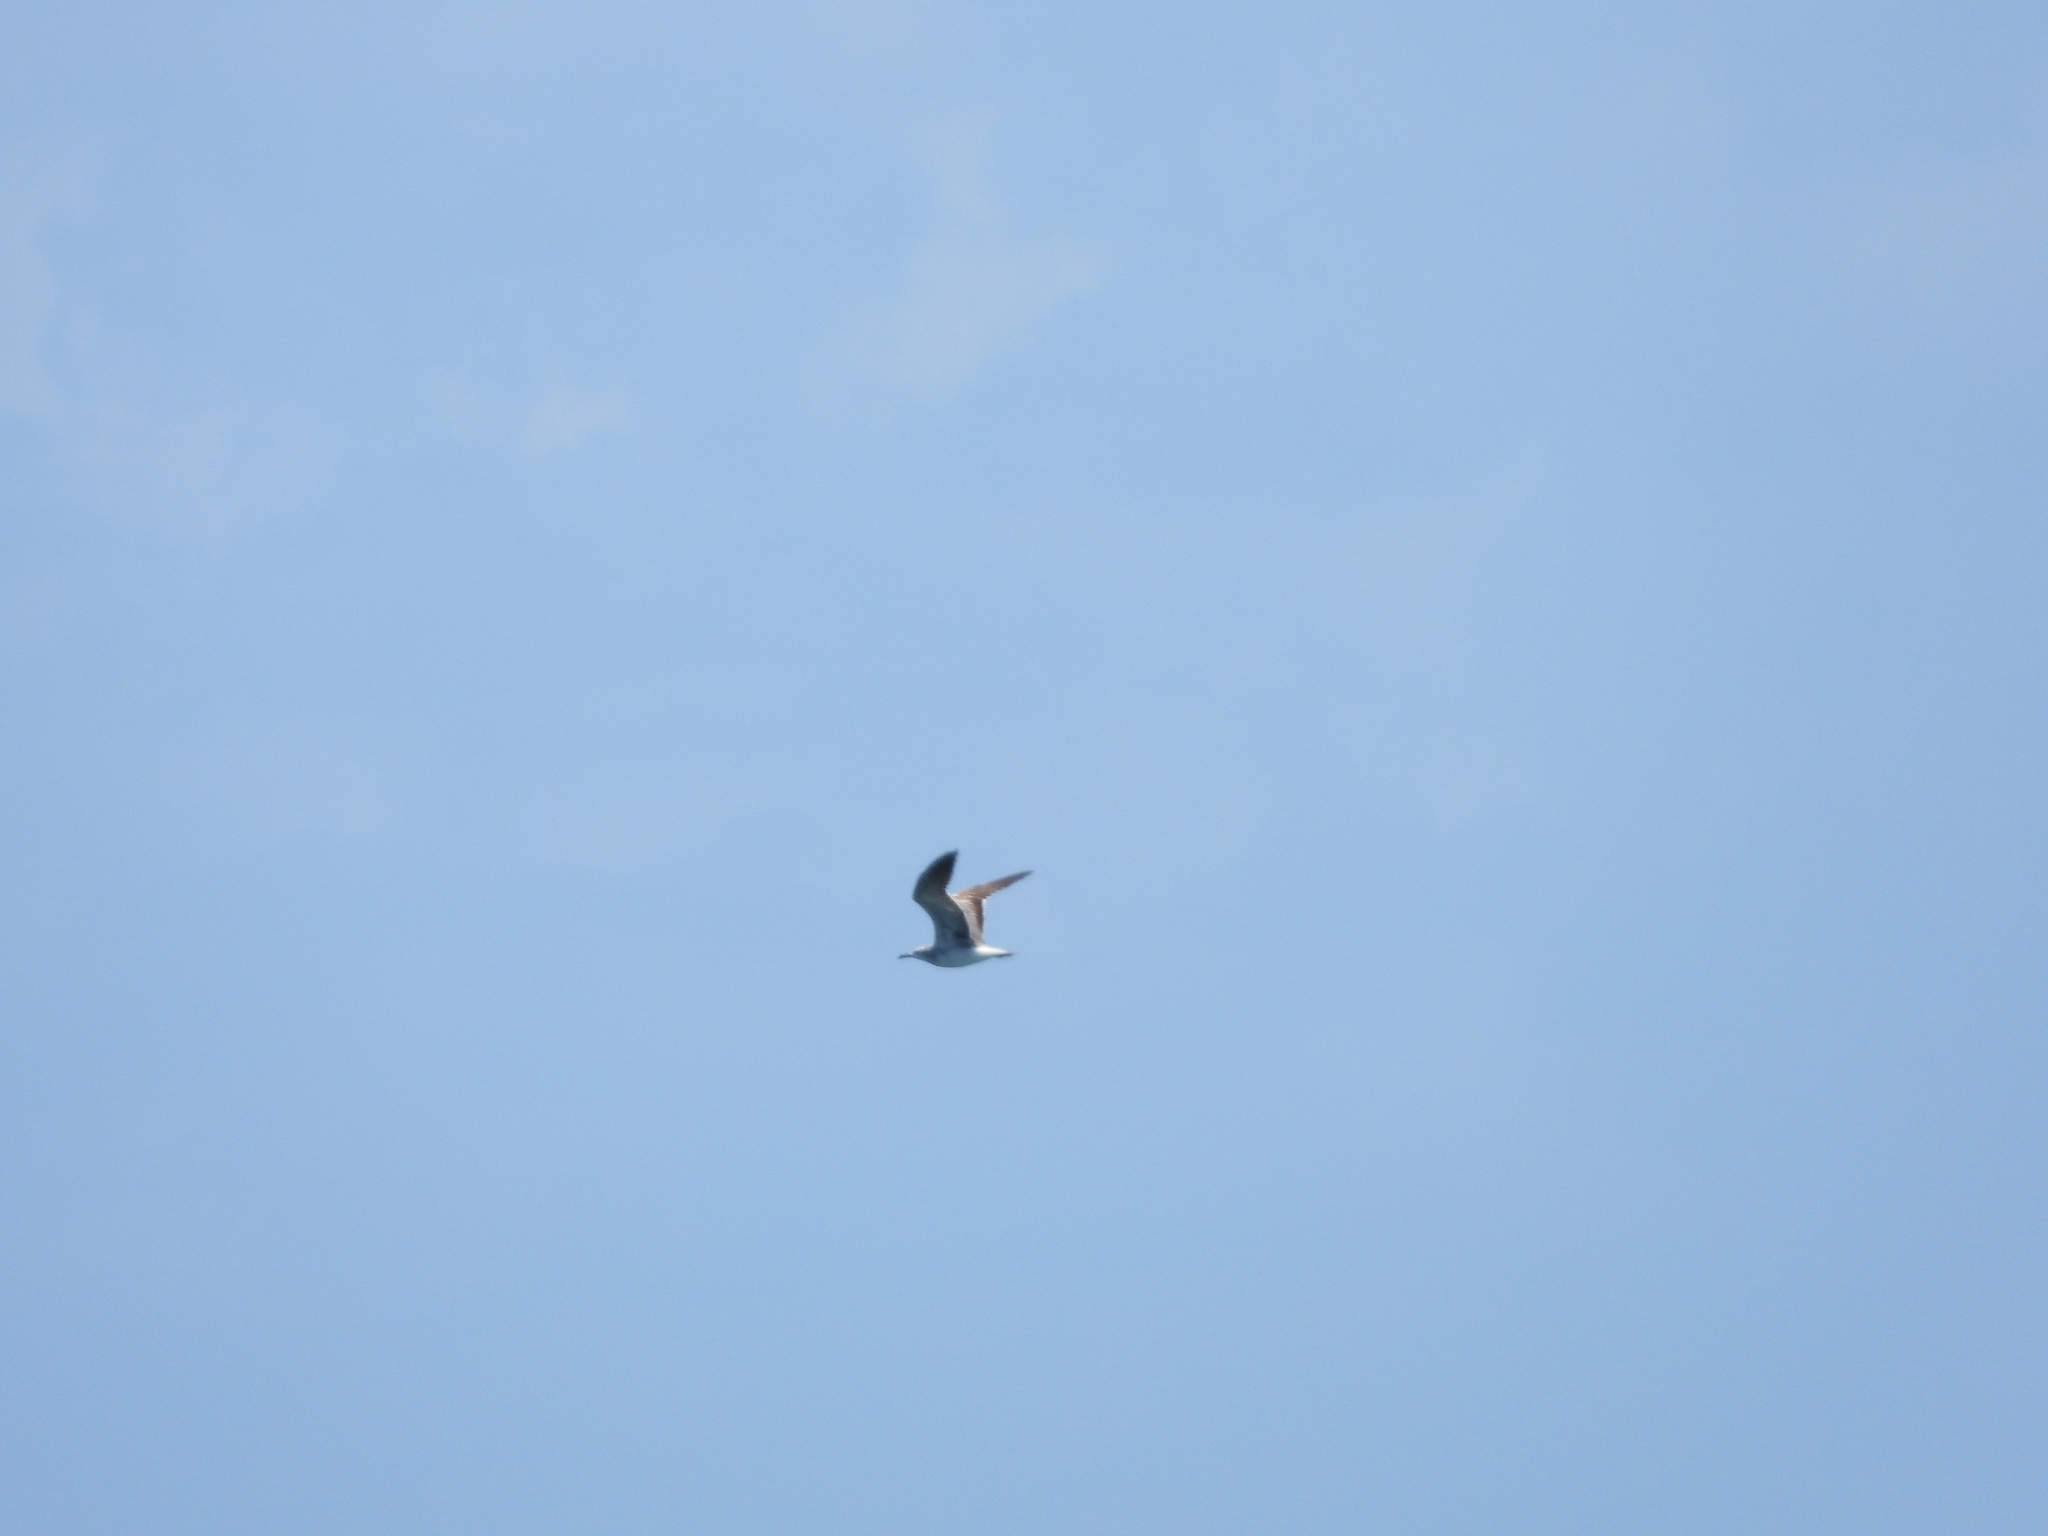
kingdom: Animalia
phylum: Chordata
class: Aves
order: Charadriiformes
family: Laridae
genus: Leucophaeus
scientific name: Leucophaeus atricilla
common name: Laughing gull
